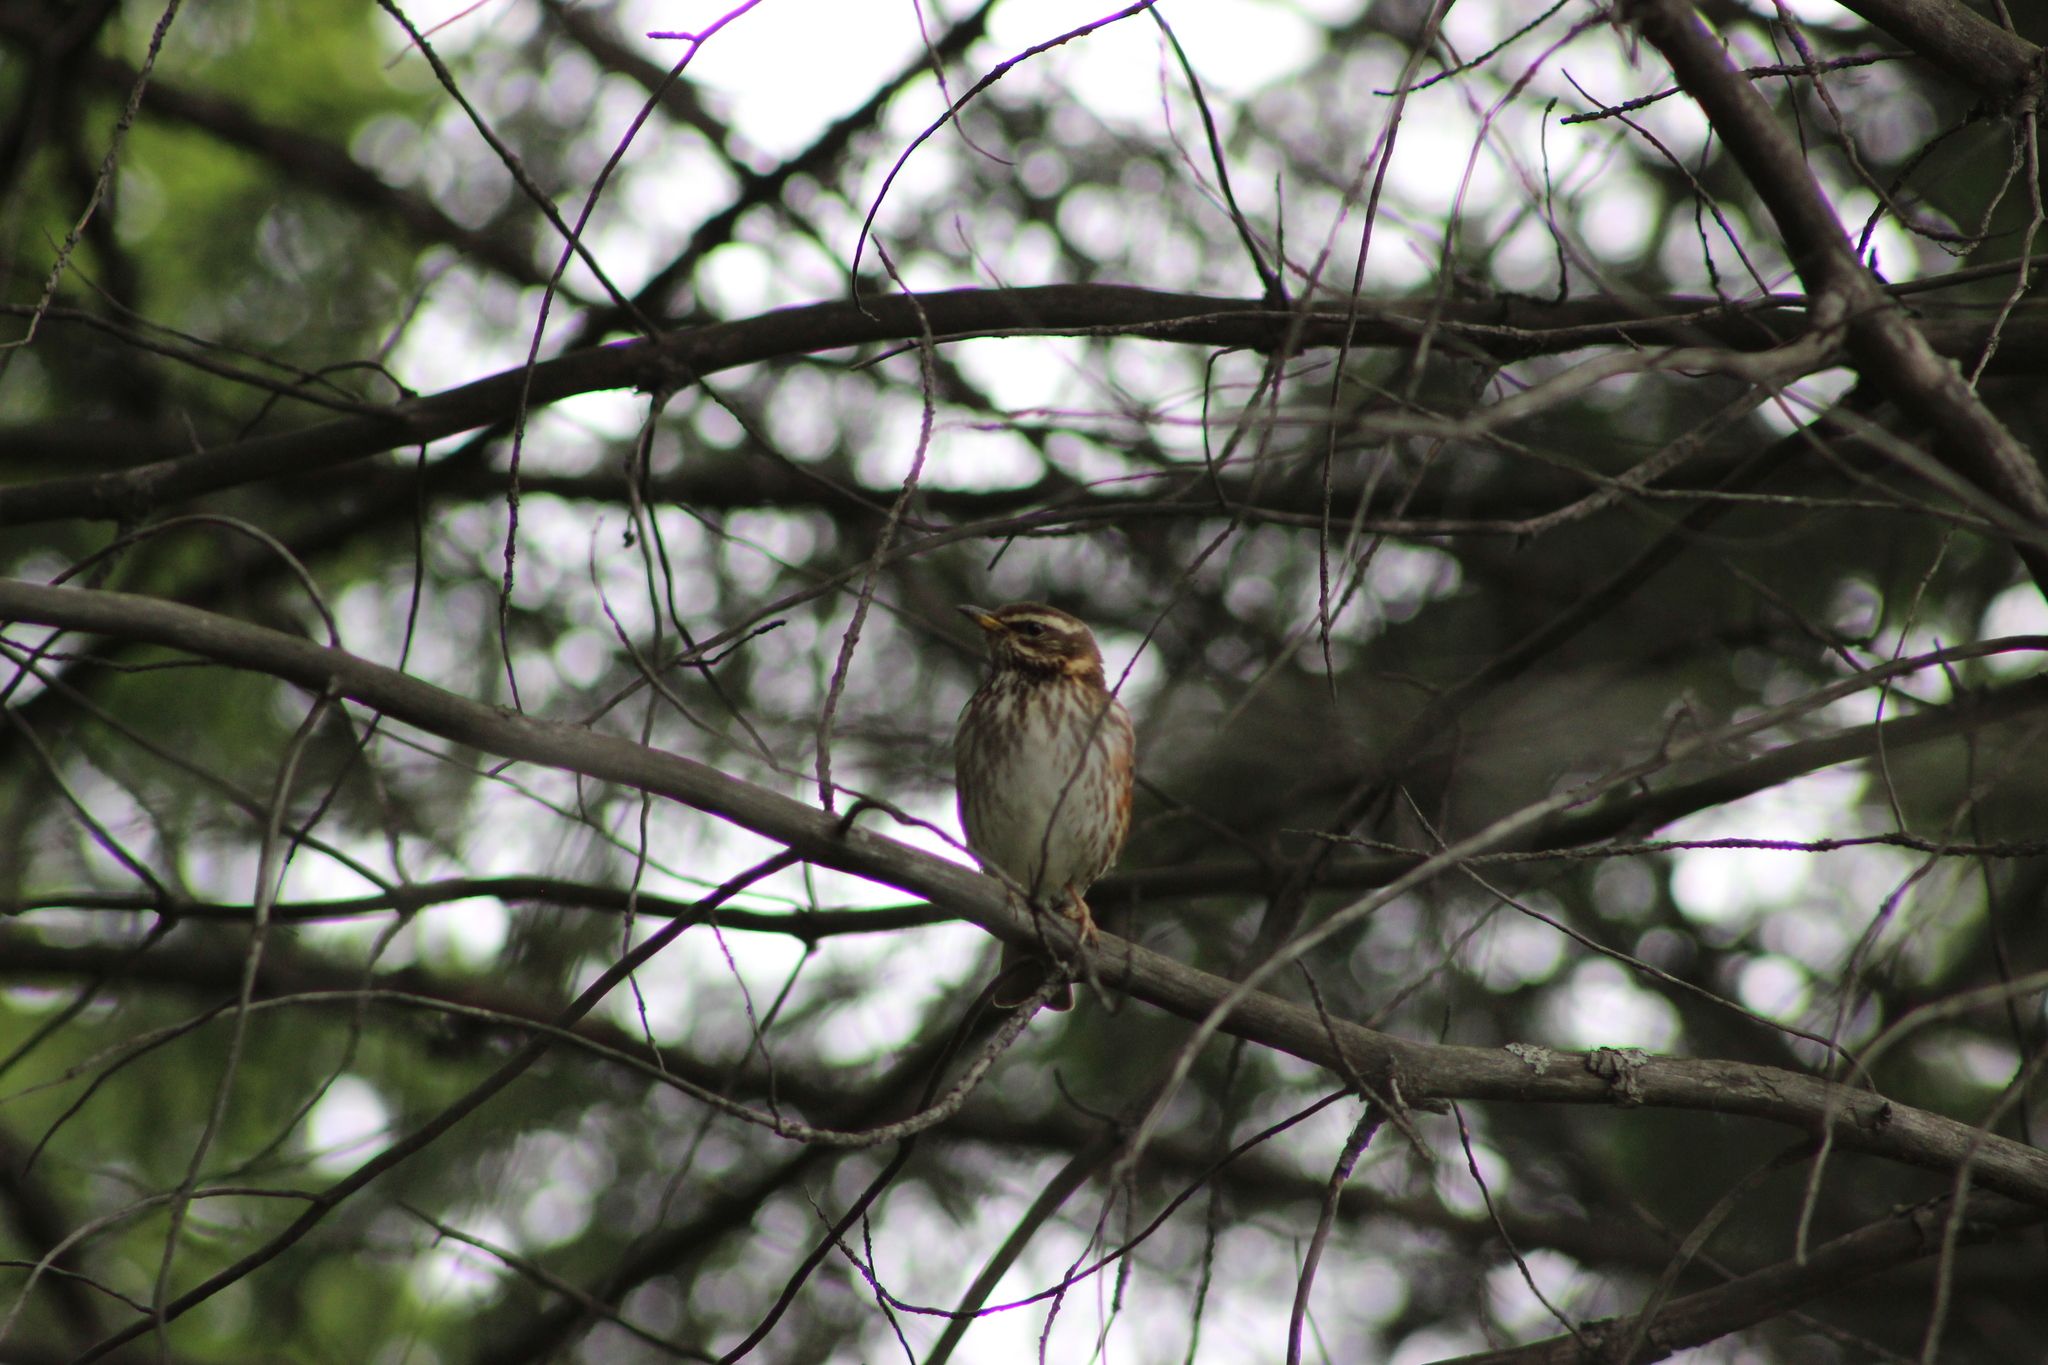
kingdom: Animalia
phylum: Chordata
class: Aves
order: Passeriformes
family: Turdidae
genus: Turdus
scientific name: Turdus iliacus
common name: Redwing
